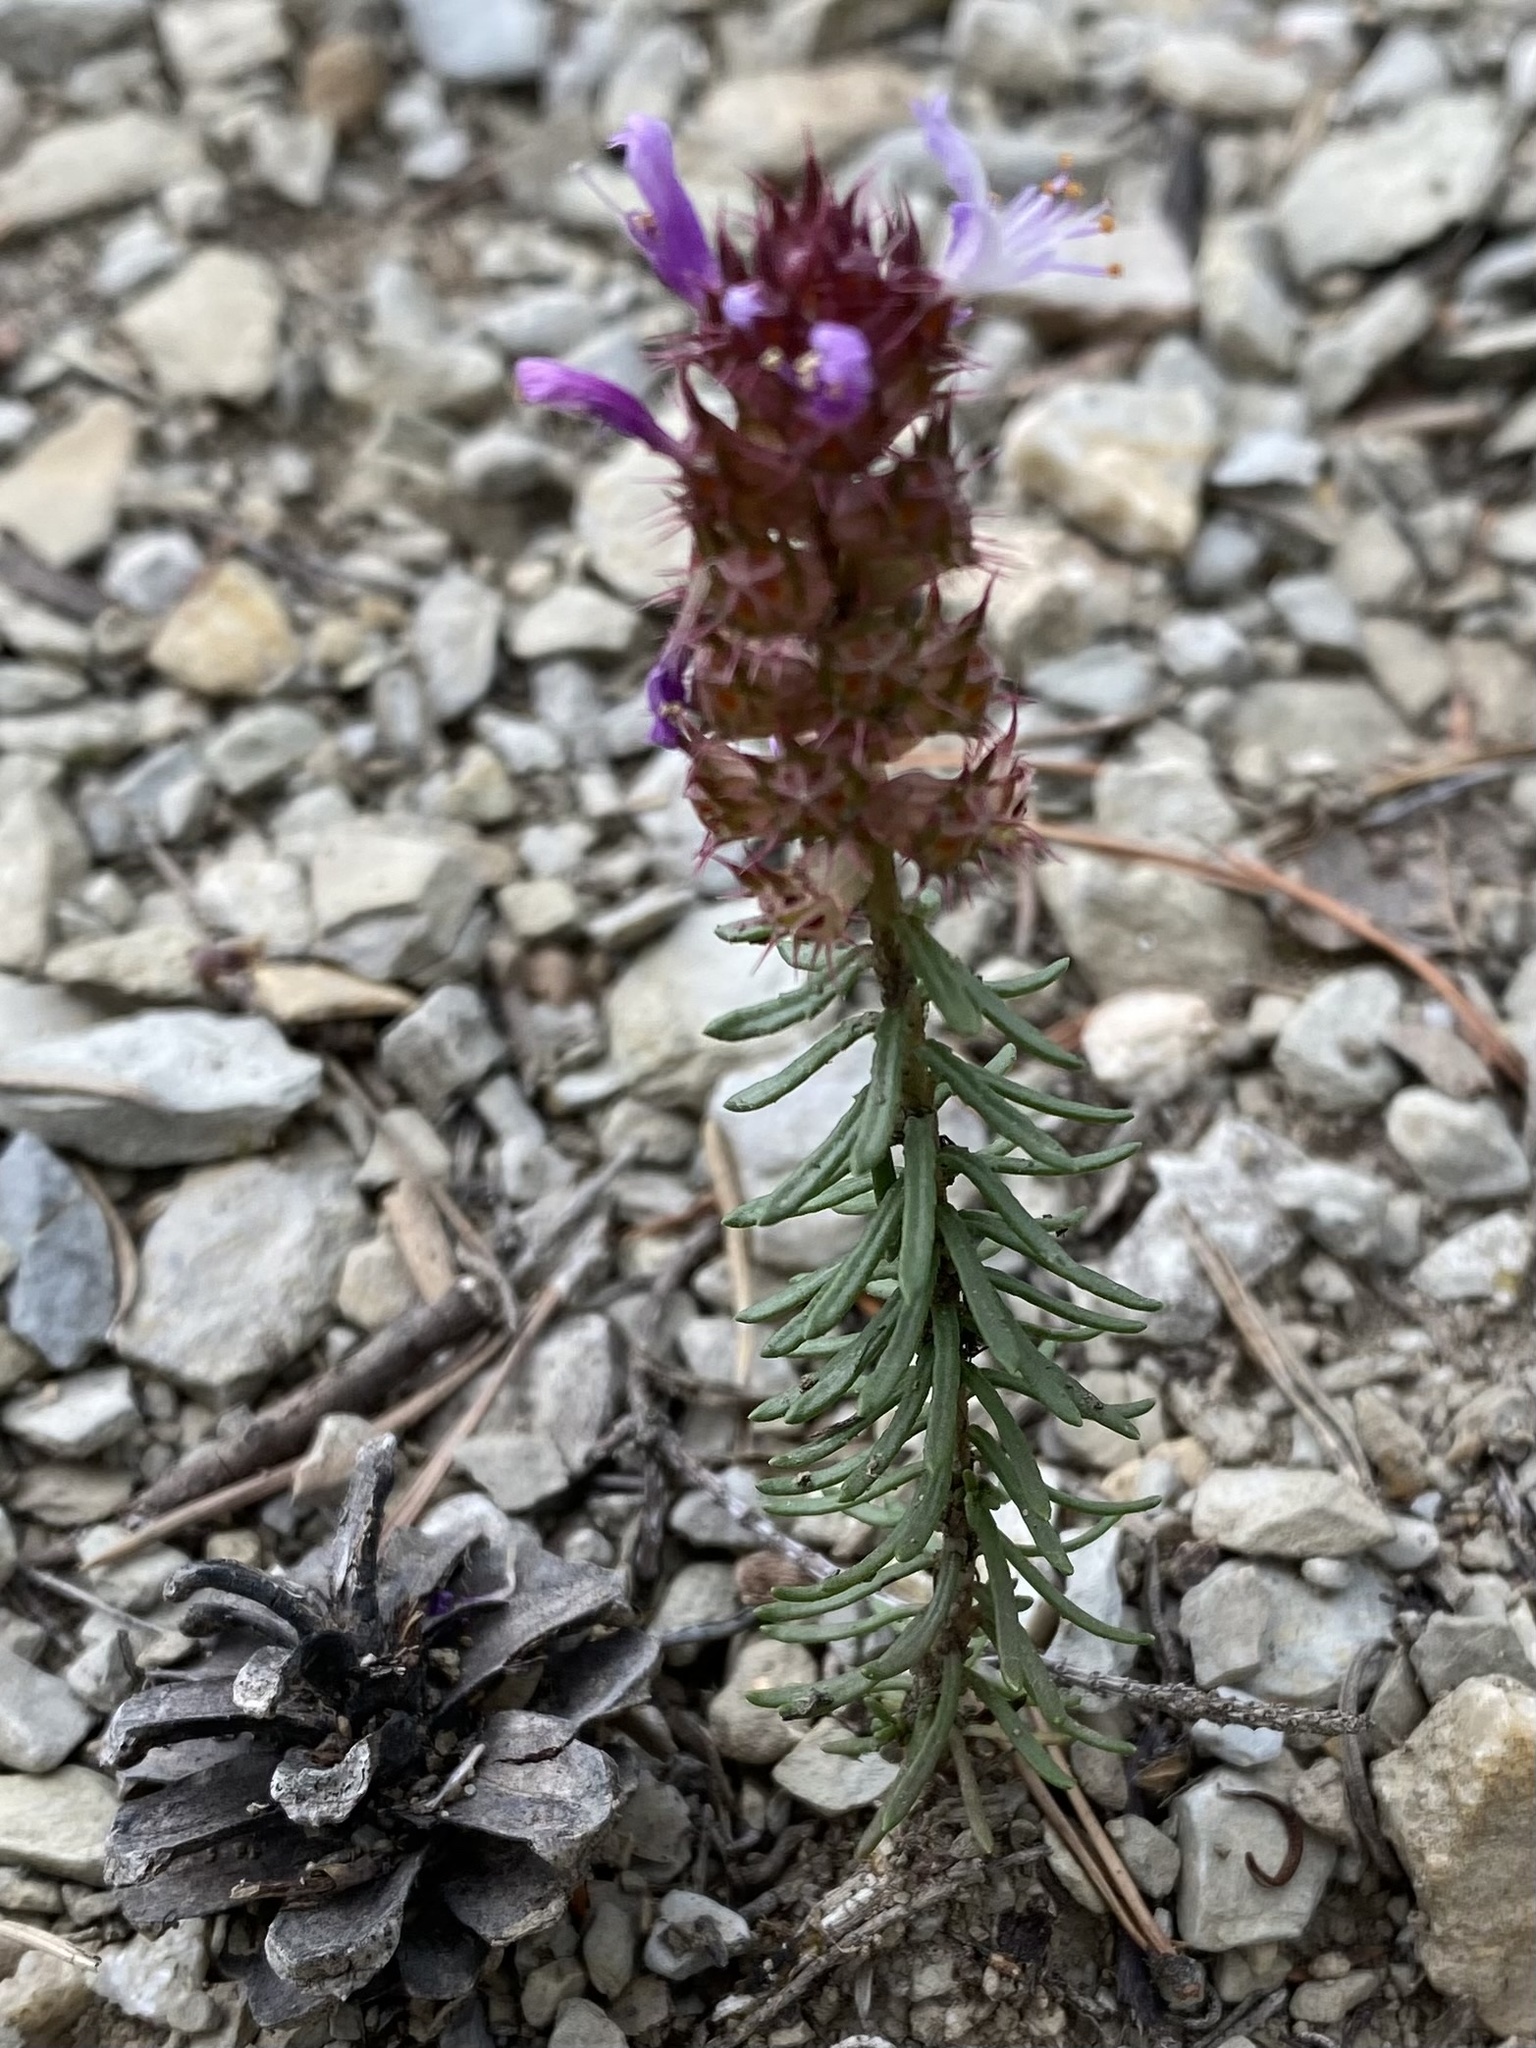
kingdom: Plantae
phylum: Tracheophyta
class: Magnoliopsida
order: Ericales
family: Primulaceae
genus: Coris
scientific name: Coris monspeliensis
